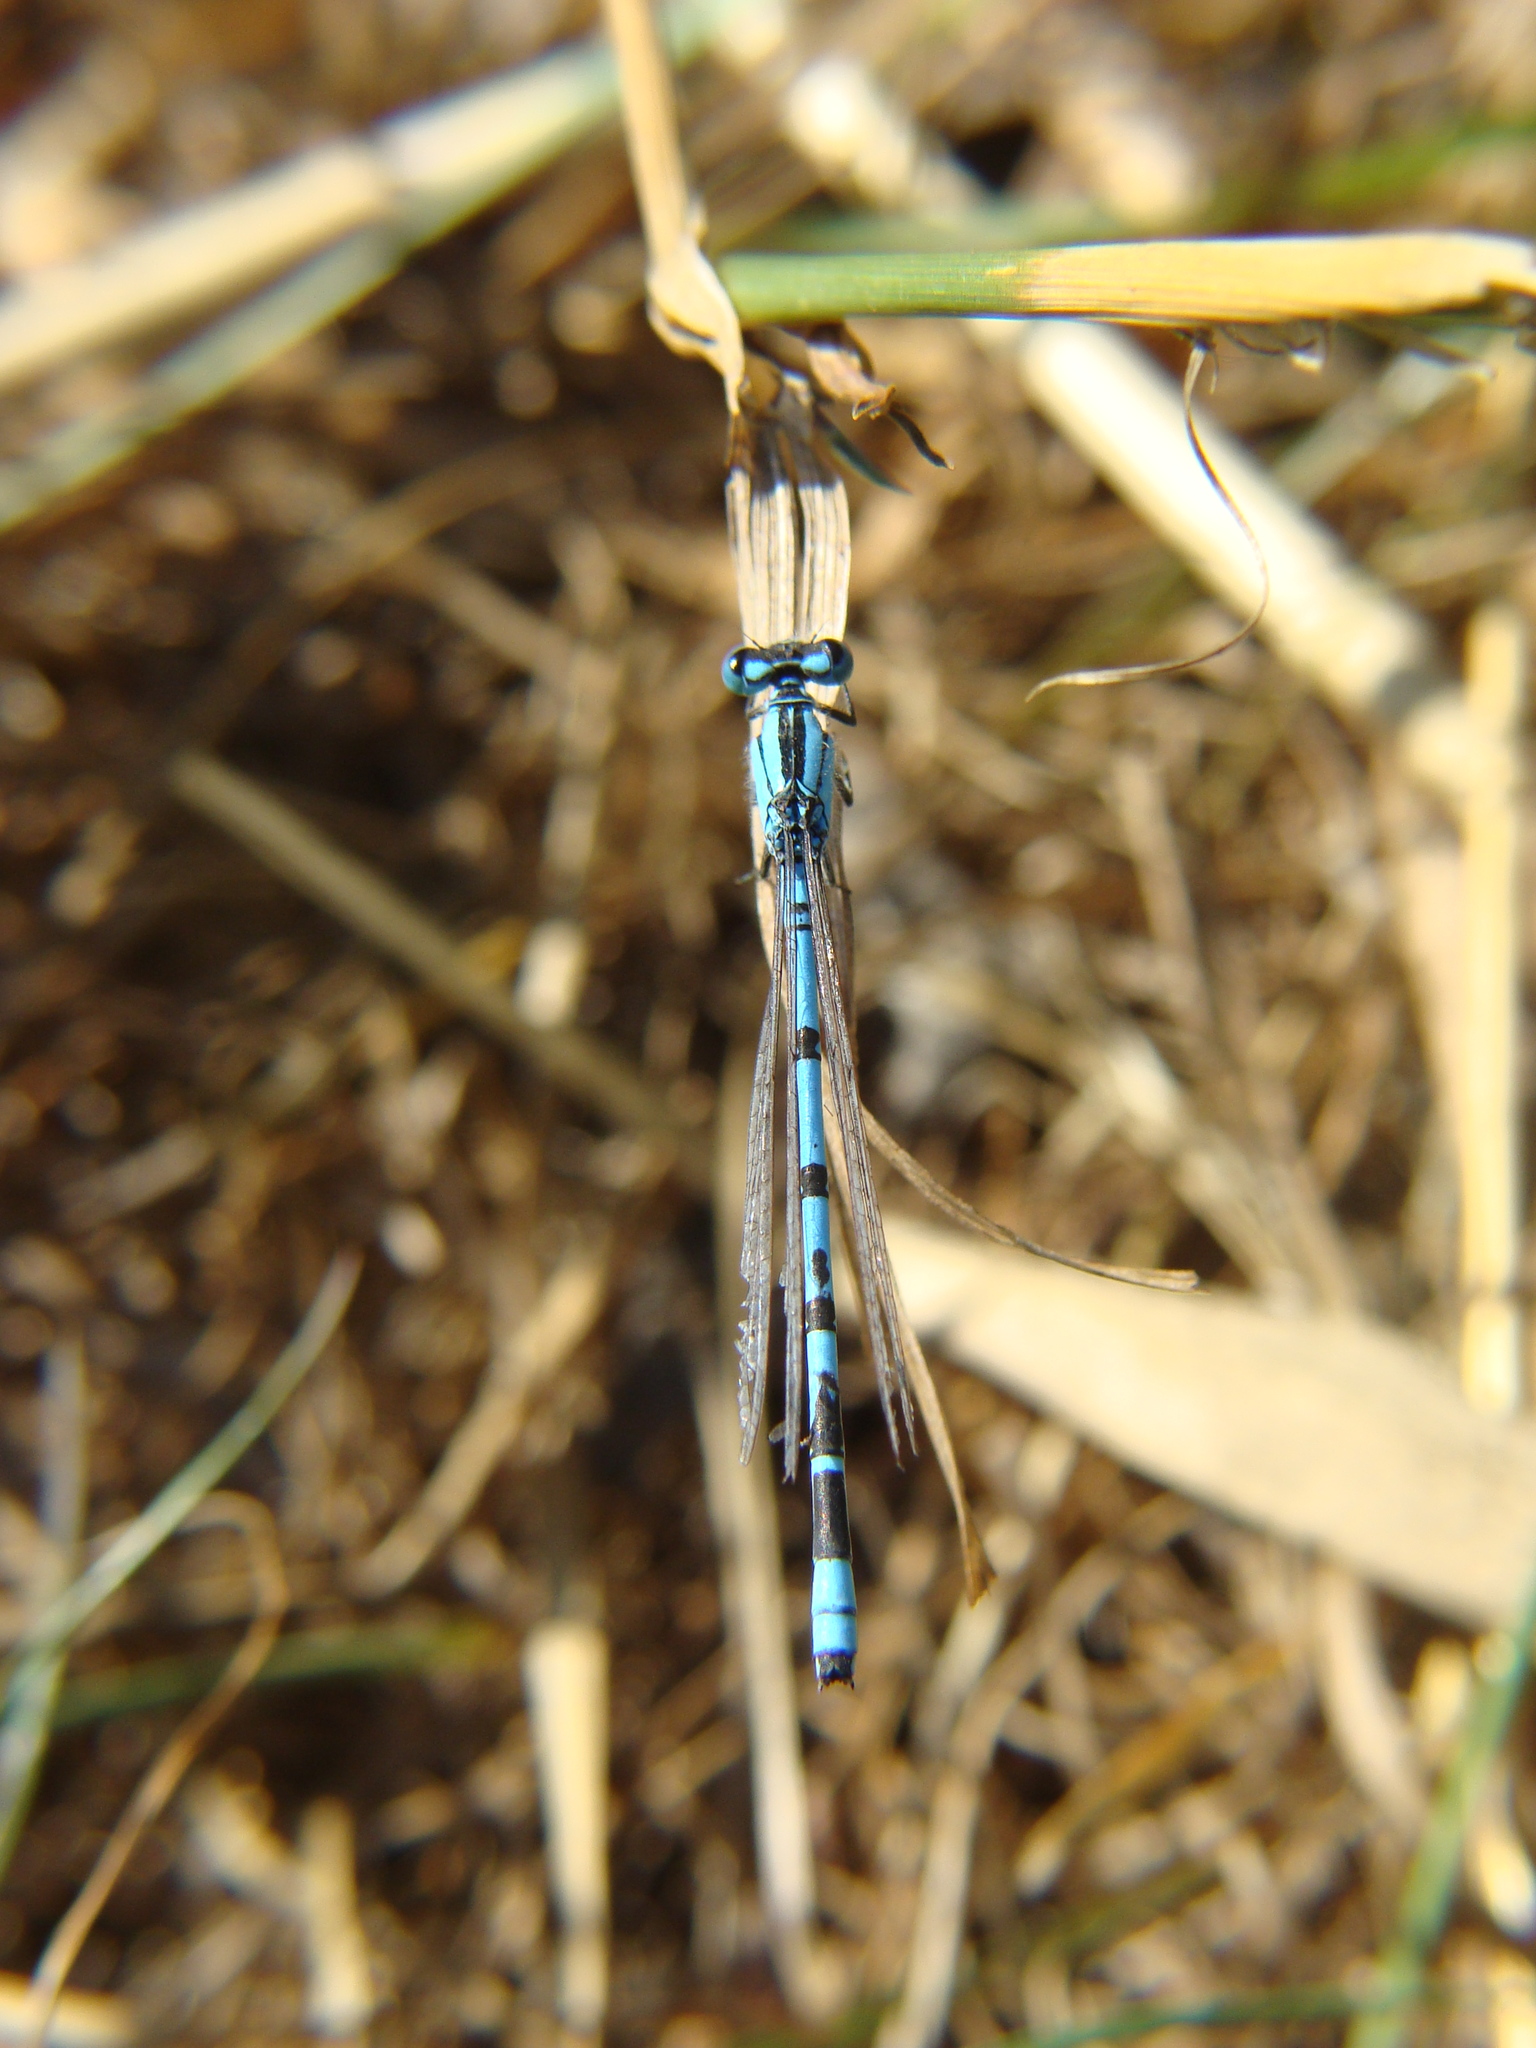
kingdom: Animalia
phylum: Arthropoda
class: Insecta
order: Odonata
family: Coenagrionidae
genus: Enallagma
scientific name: Enallagma cyathigerum
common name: Common blue damselfly
